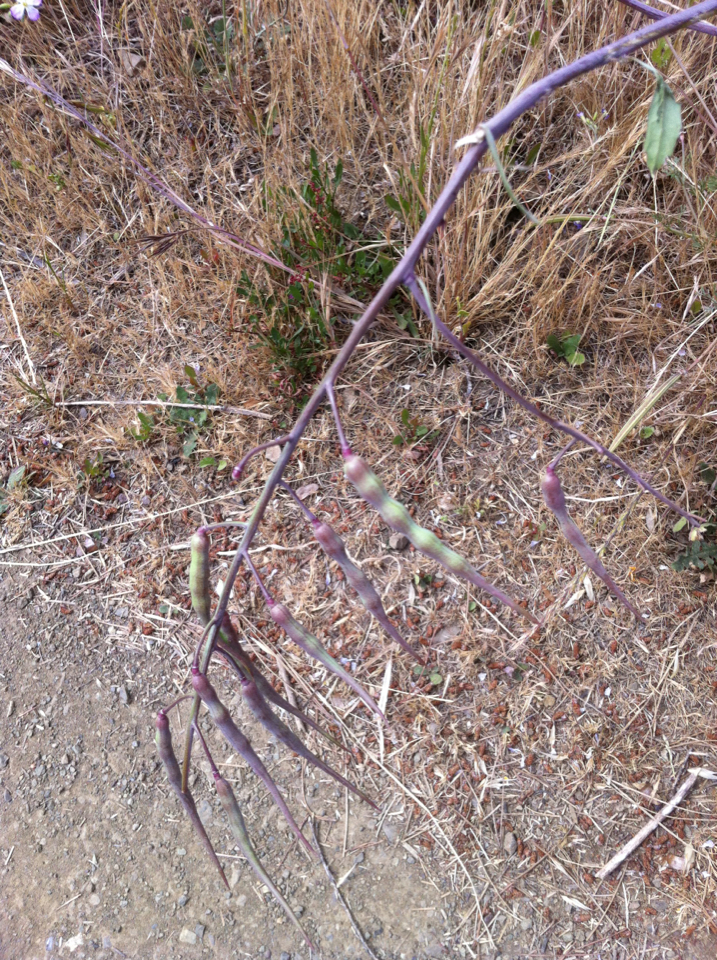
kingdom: Plantae
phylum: Tracheophyta
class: Magnoliopsida
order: Brassicales
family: Brassicaceae
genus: Raphanus
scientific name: Raphanus sativus
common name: Cultivated radish
